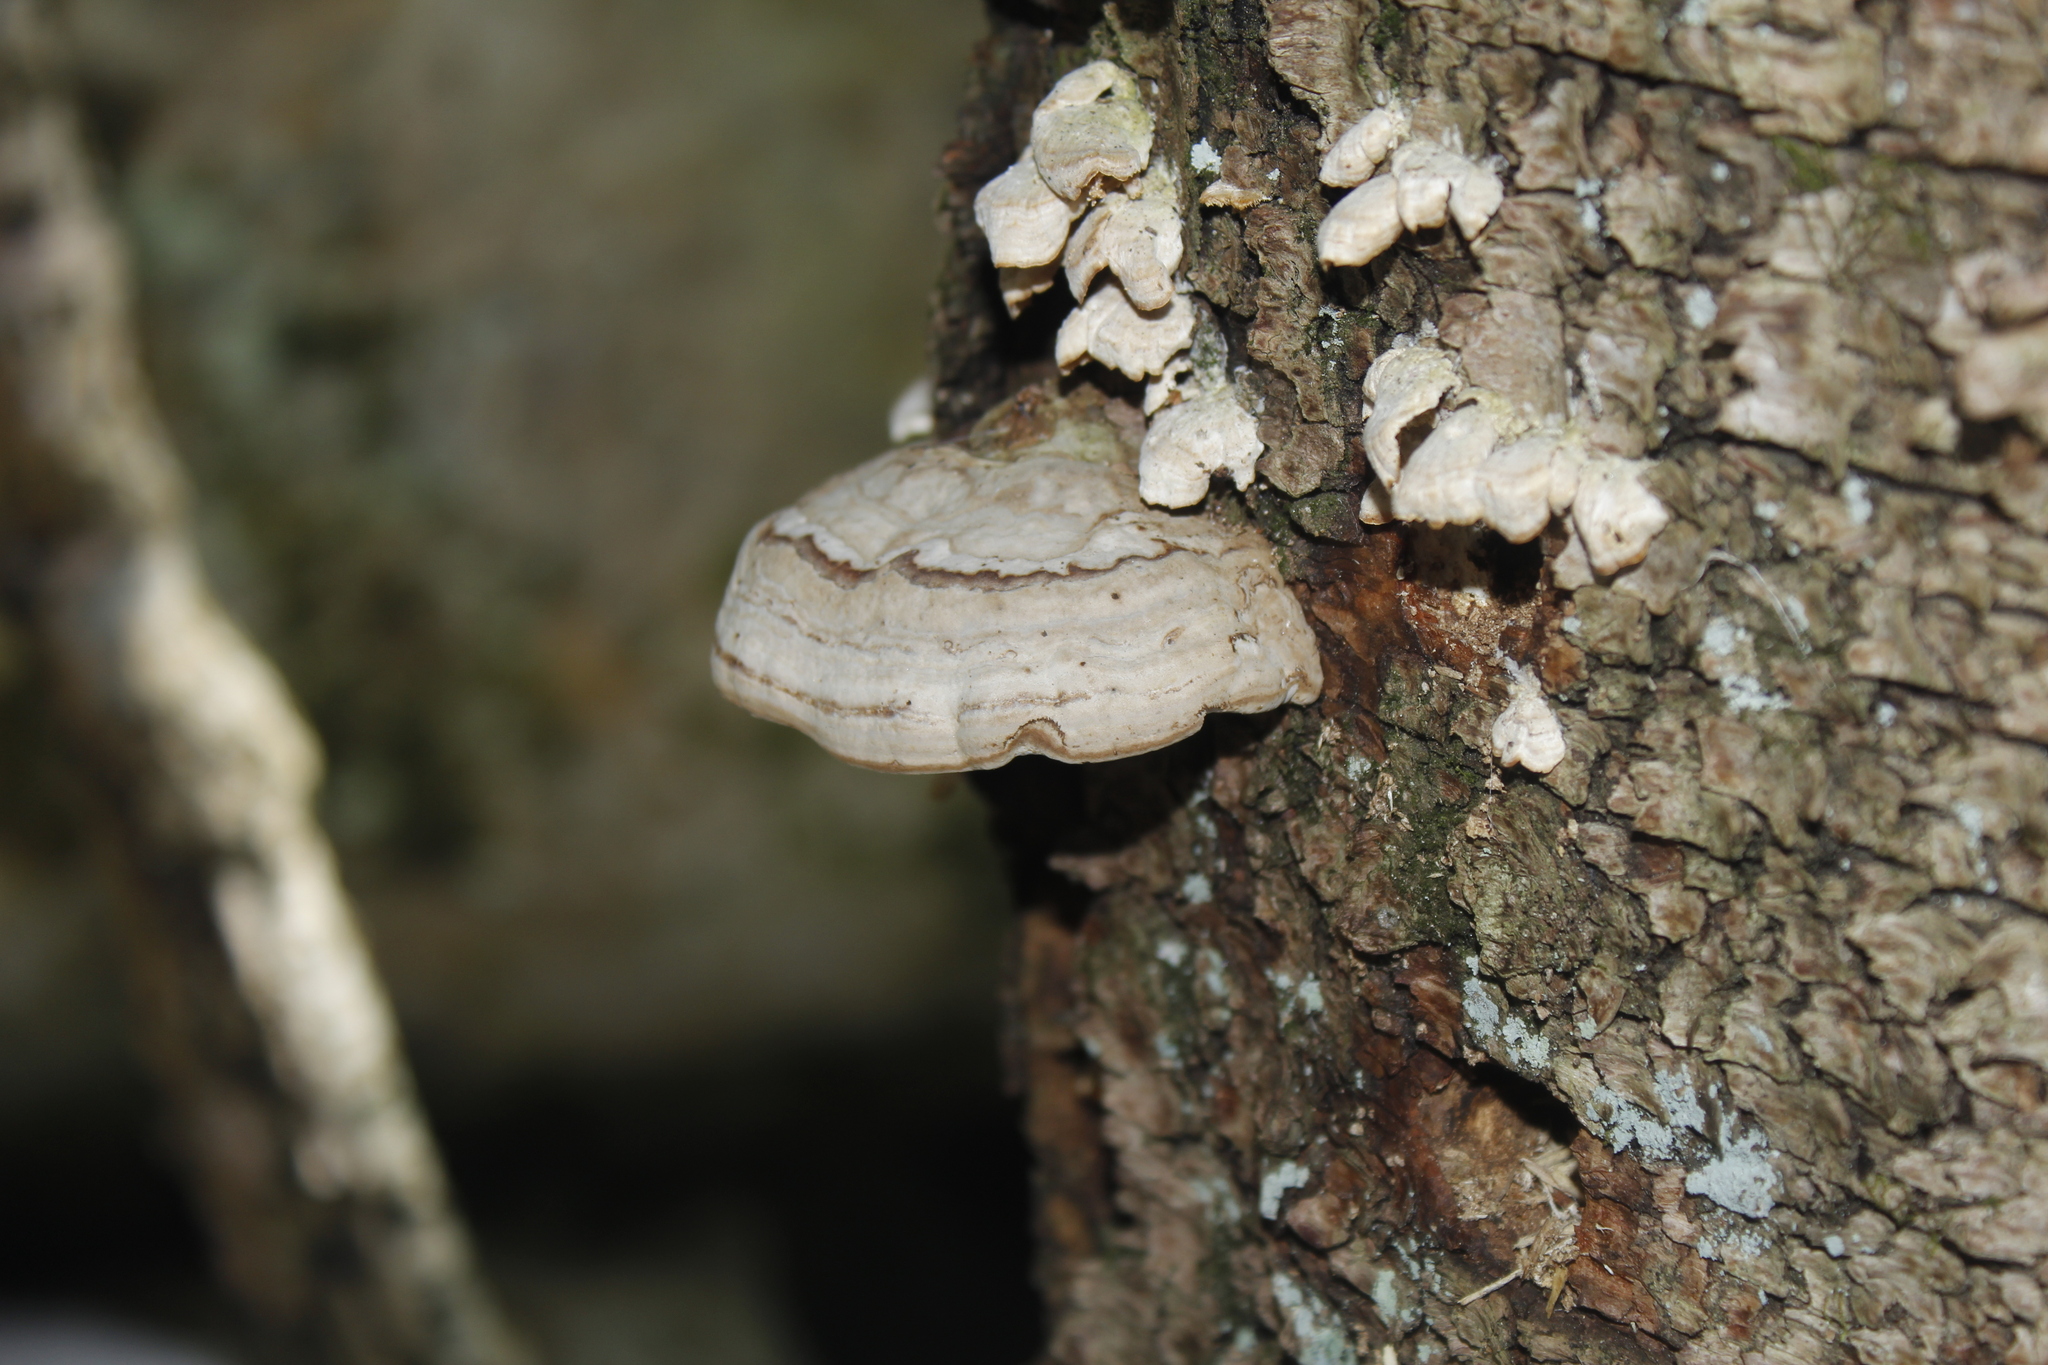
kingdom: Fungi
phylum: Basidiomycota
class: Agaricomycetes
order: Polyporales
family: Polyporaceae
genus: Fomes
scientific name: Fomes fomentarius
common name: Hoof fungus
